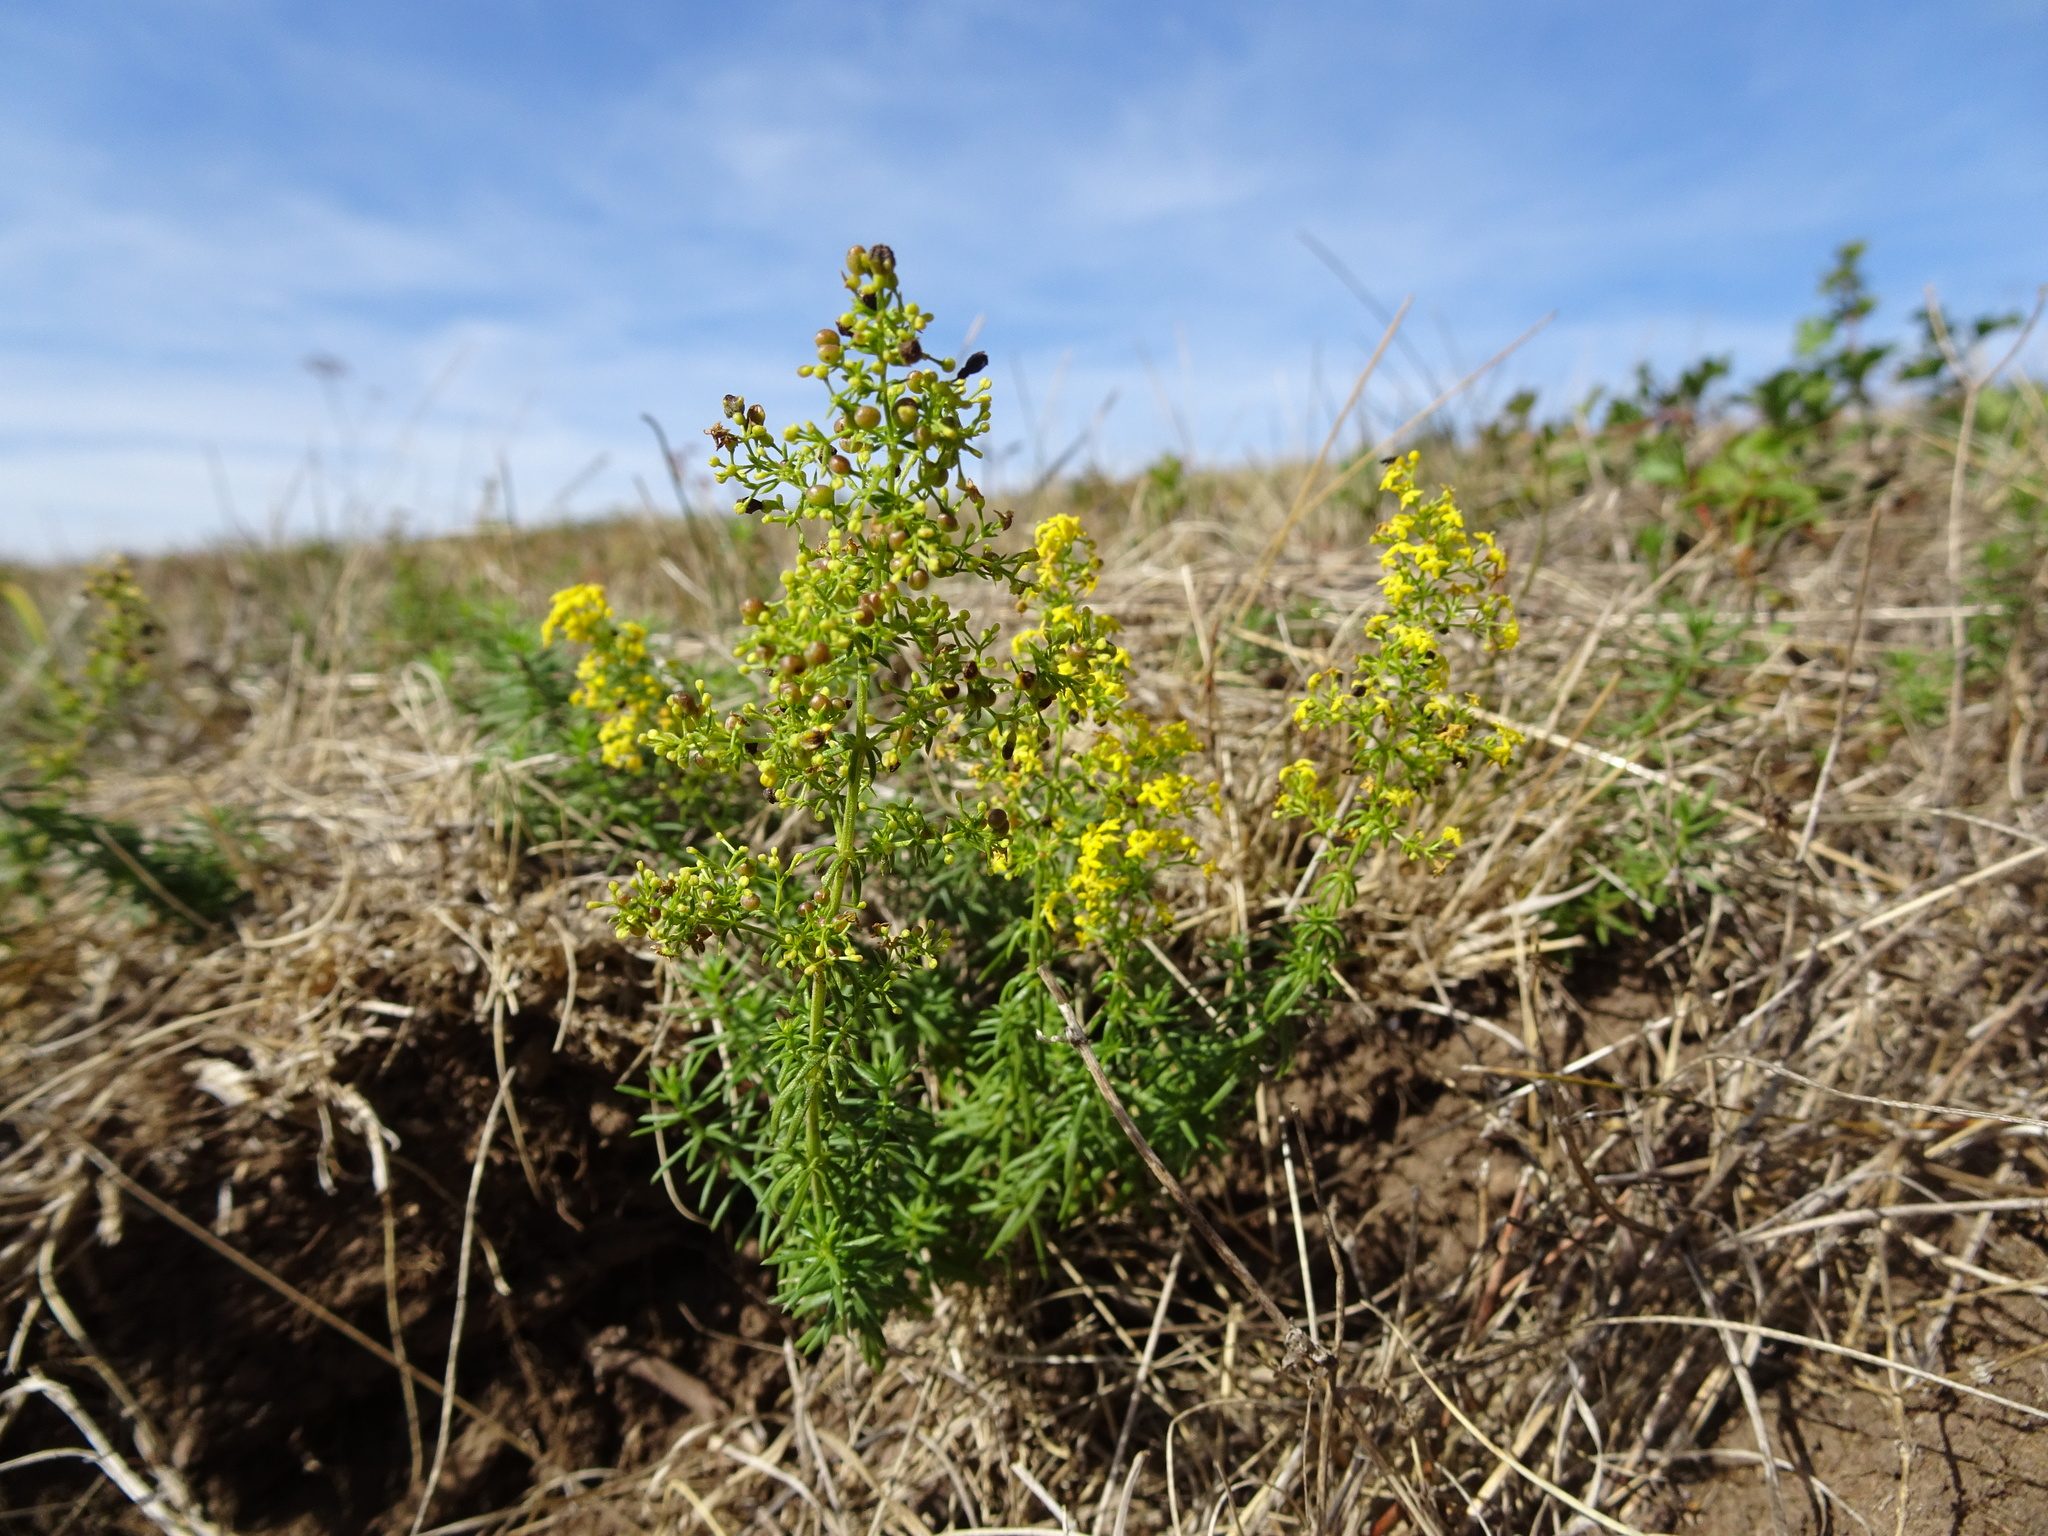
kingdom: Plantae
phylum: Tracheophyta
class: Magnoliopsida
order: Gentianales
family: Rubiaceae
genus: Galium
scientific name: Galium verum
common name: Lady's bedstraw
